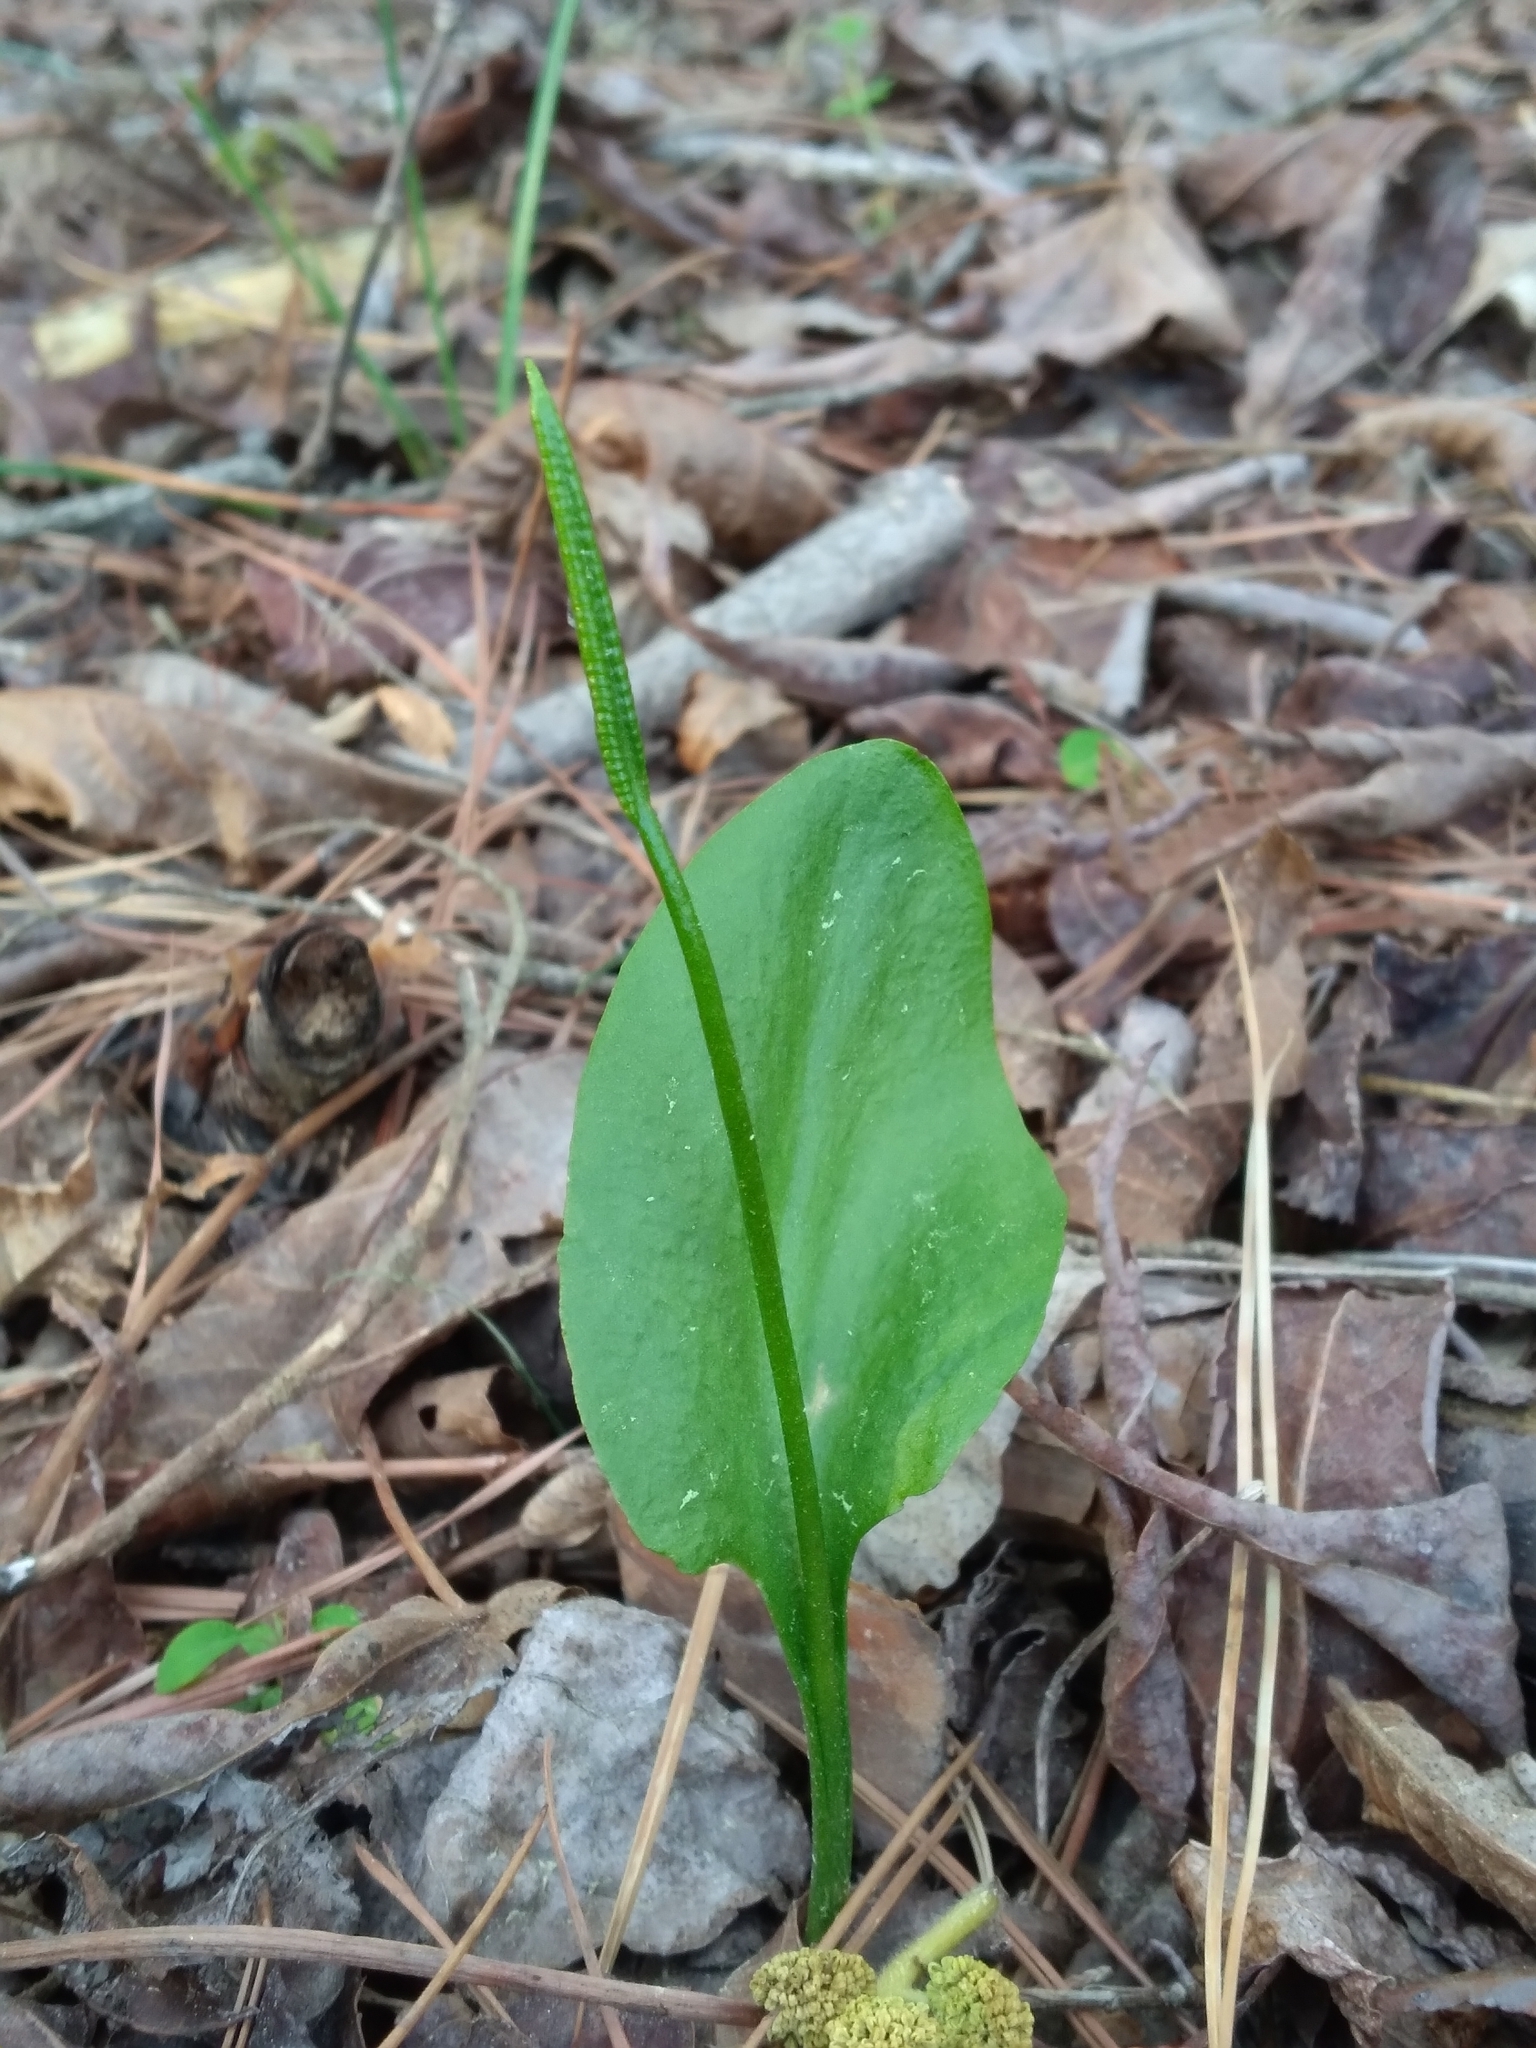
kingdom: Plantae
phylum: Tracheophyta
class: Polypodiopsida
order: Ophioglossales
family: Ophioglossaceae
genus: Ophioglossum
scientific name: Ophioglossum vulgatum
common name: Adder's-tongue
